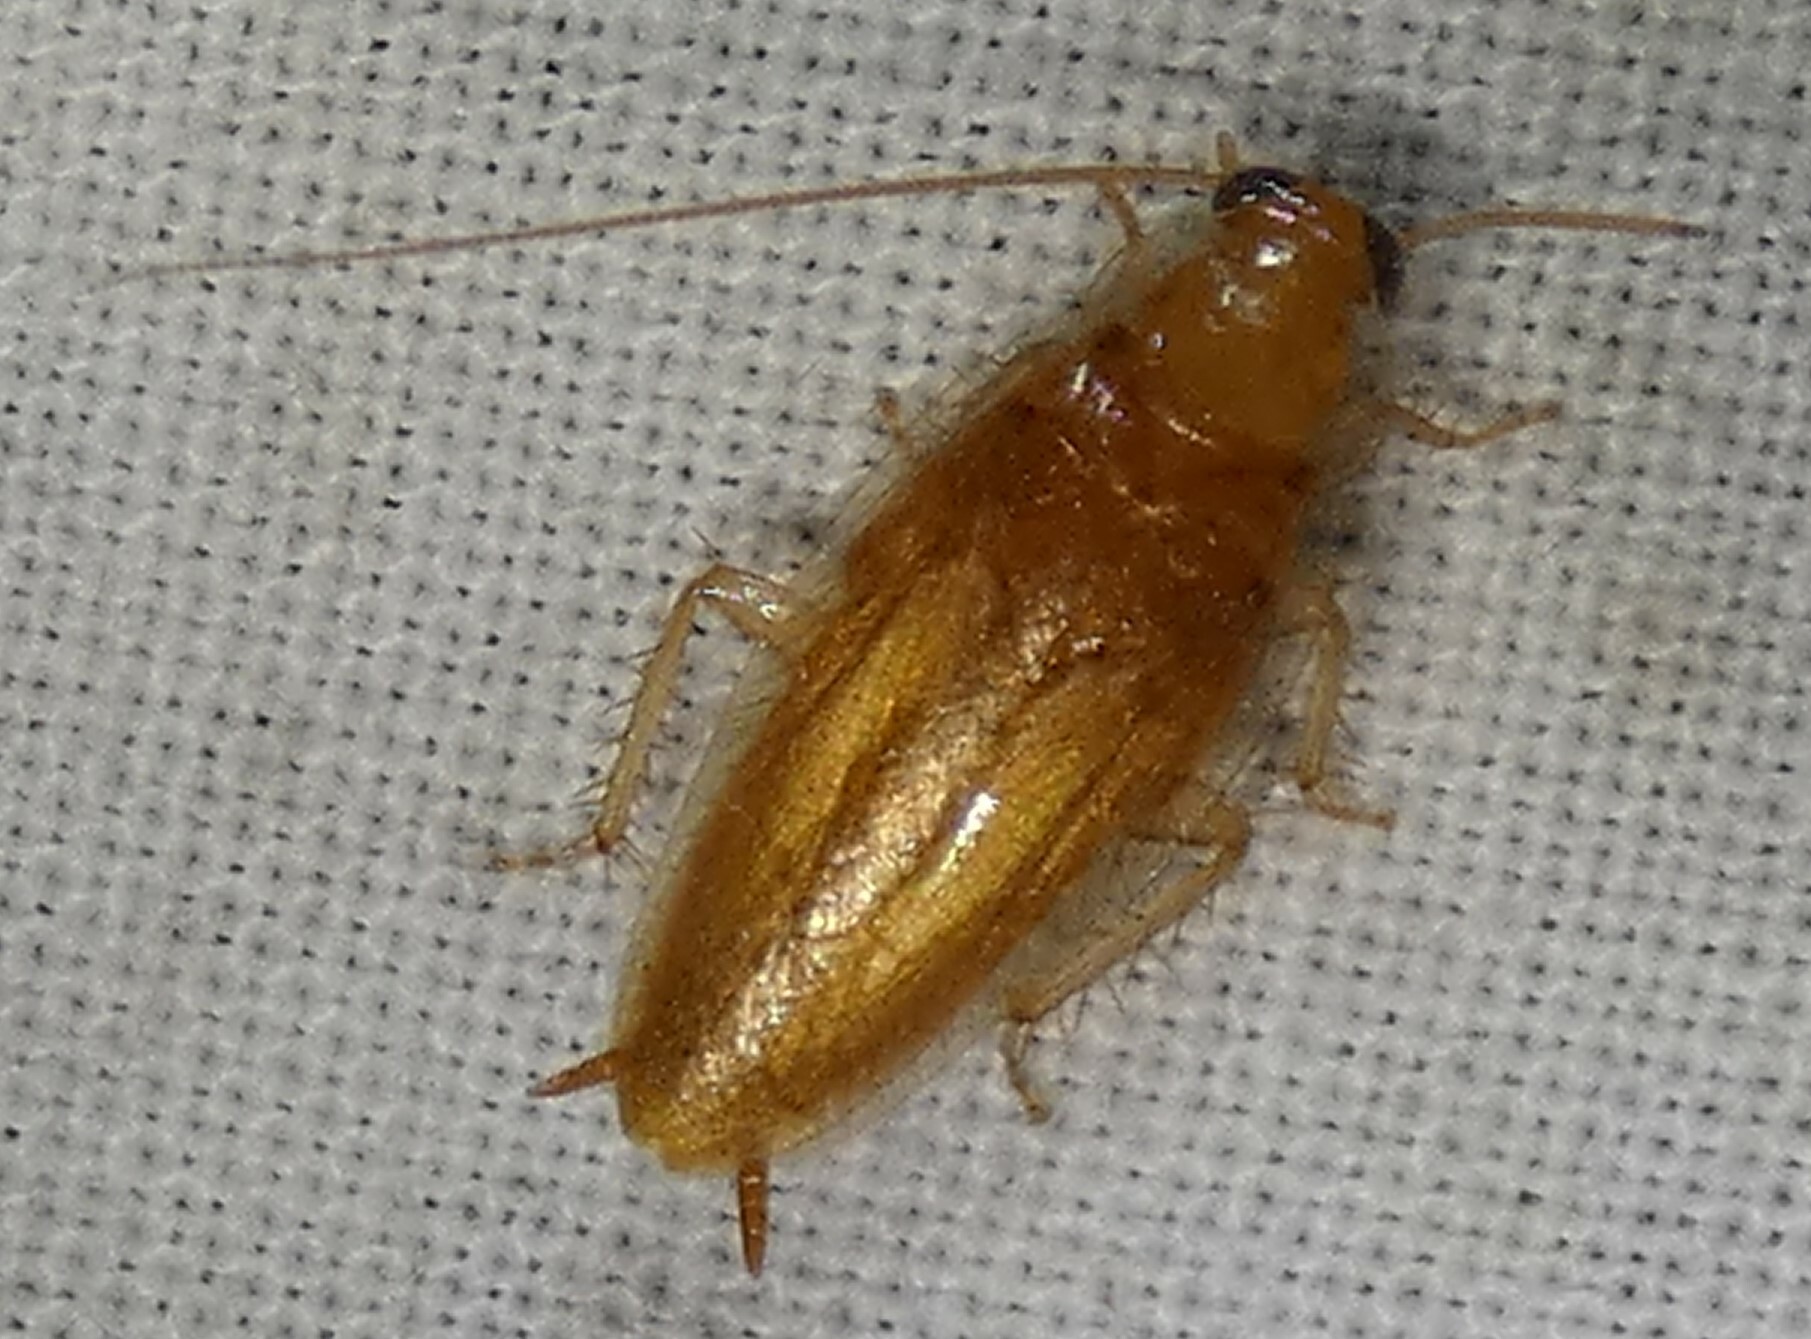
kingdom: Animalia
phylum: Arthropoda
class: Insecta
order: Blattodea
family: Ectobiidae
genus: Chorisoneura
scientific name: Chorisoneura texensis
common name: Small texas cockroach
